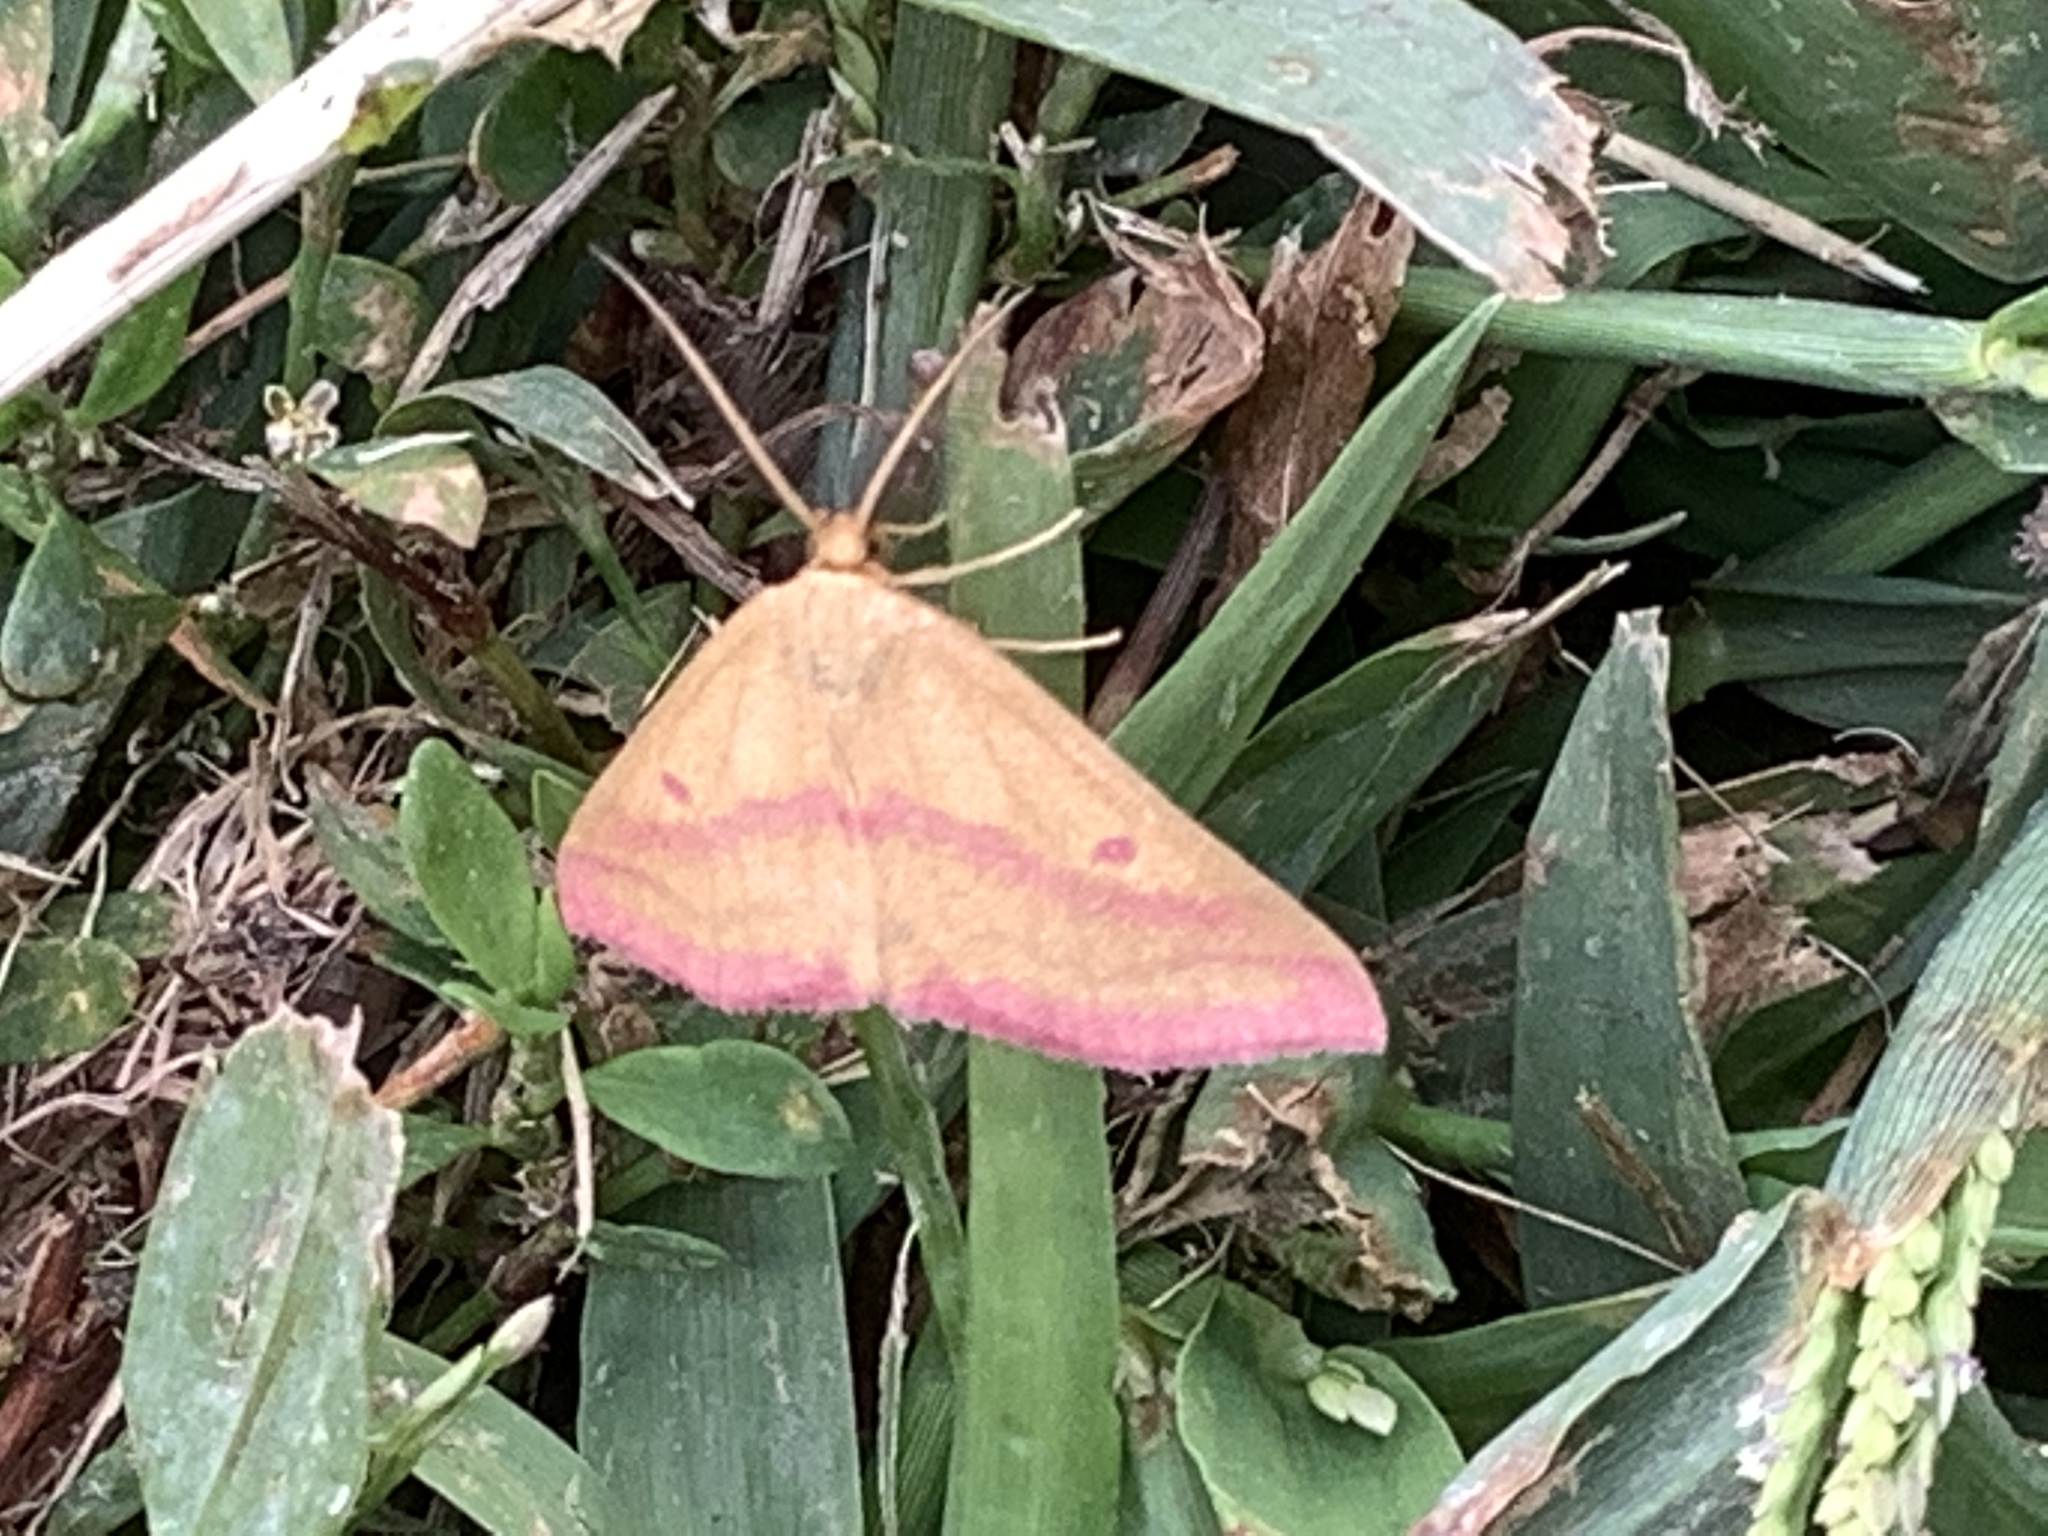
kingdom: Animalia
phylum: Arthropoda
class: Insecta
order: Lepidoptera
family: Geometridae
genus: Haematopis
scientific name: Haematopis grataria
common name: Chickweed geometer
